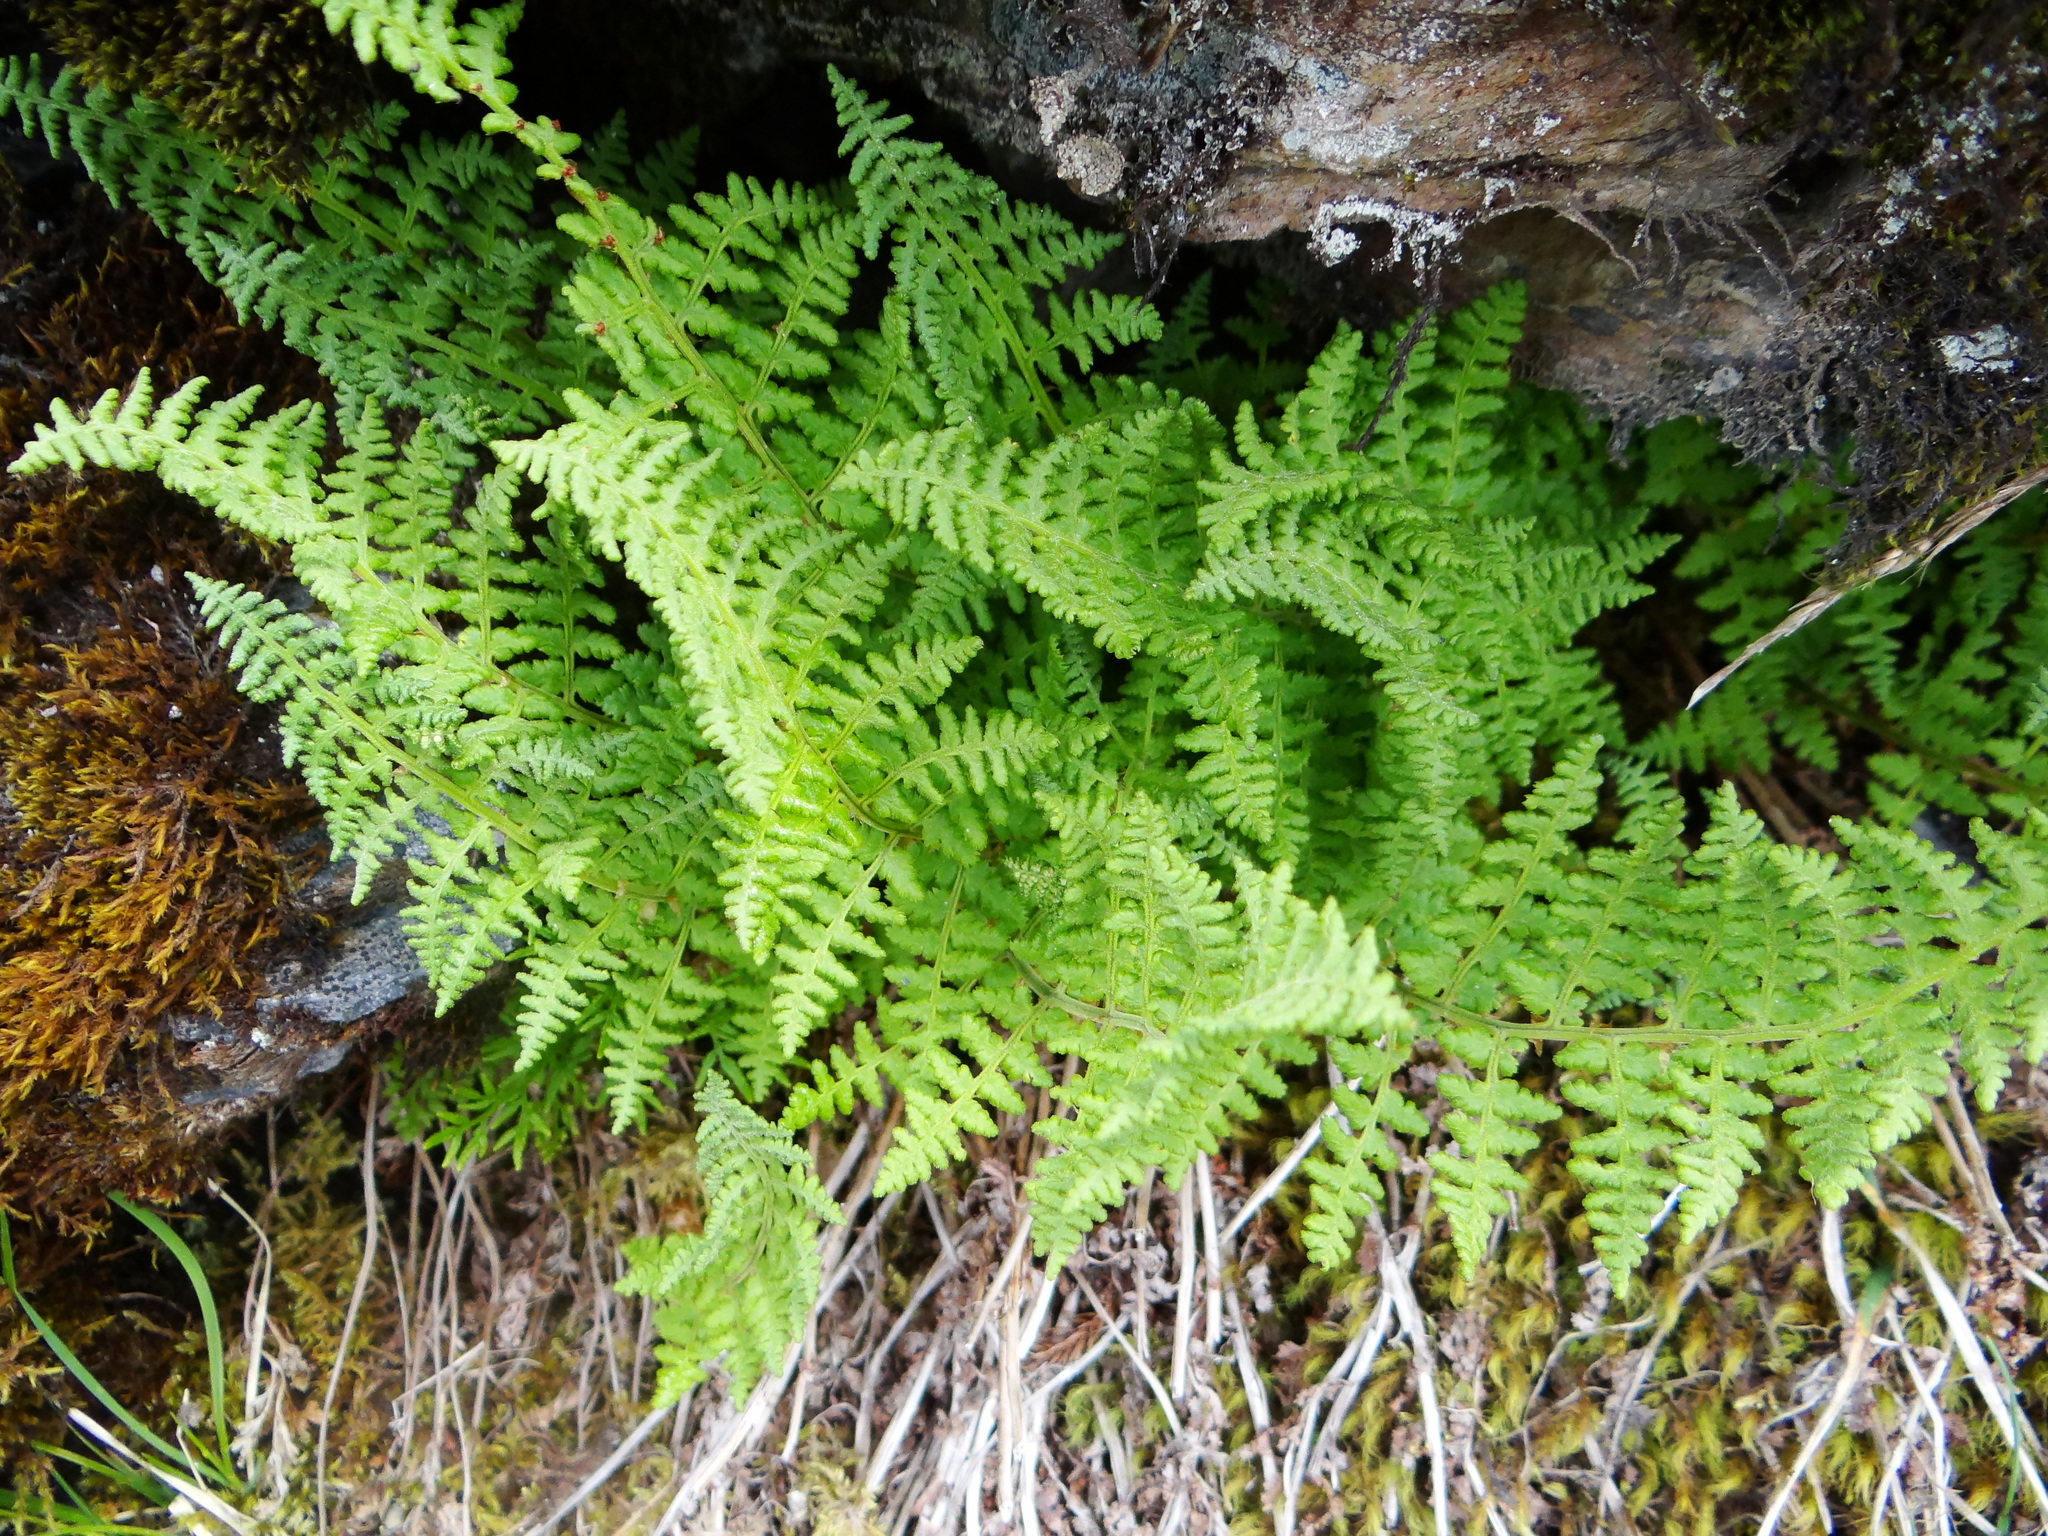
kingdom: Plantae
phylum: Tracheophyta
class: Polypodiopsida
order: Polypodiales
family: Dryopteridaceae
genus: Dryopteris
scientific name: Dryopteris alpestris
